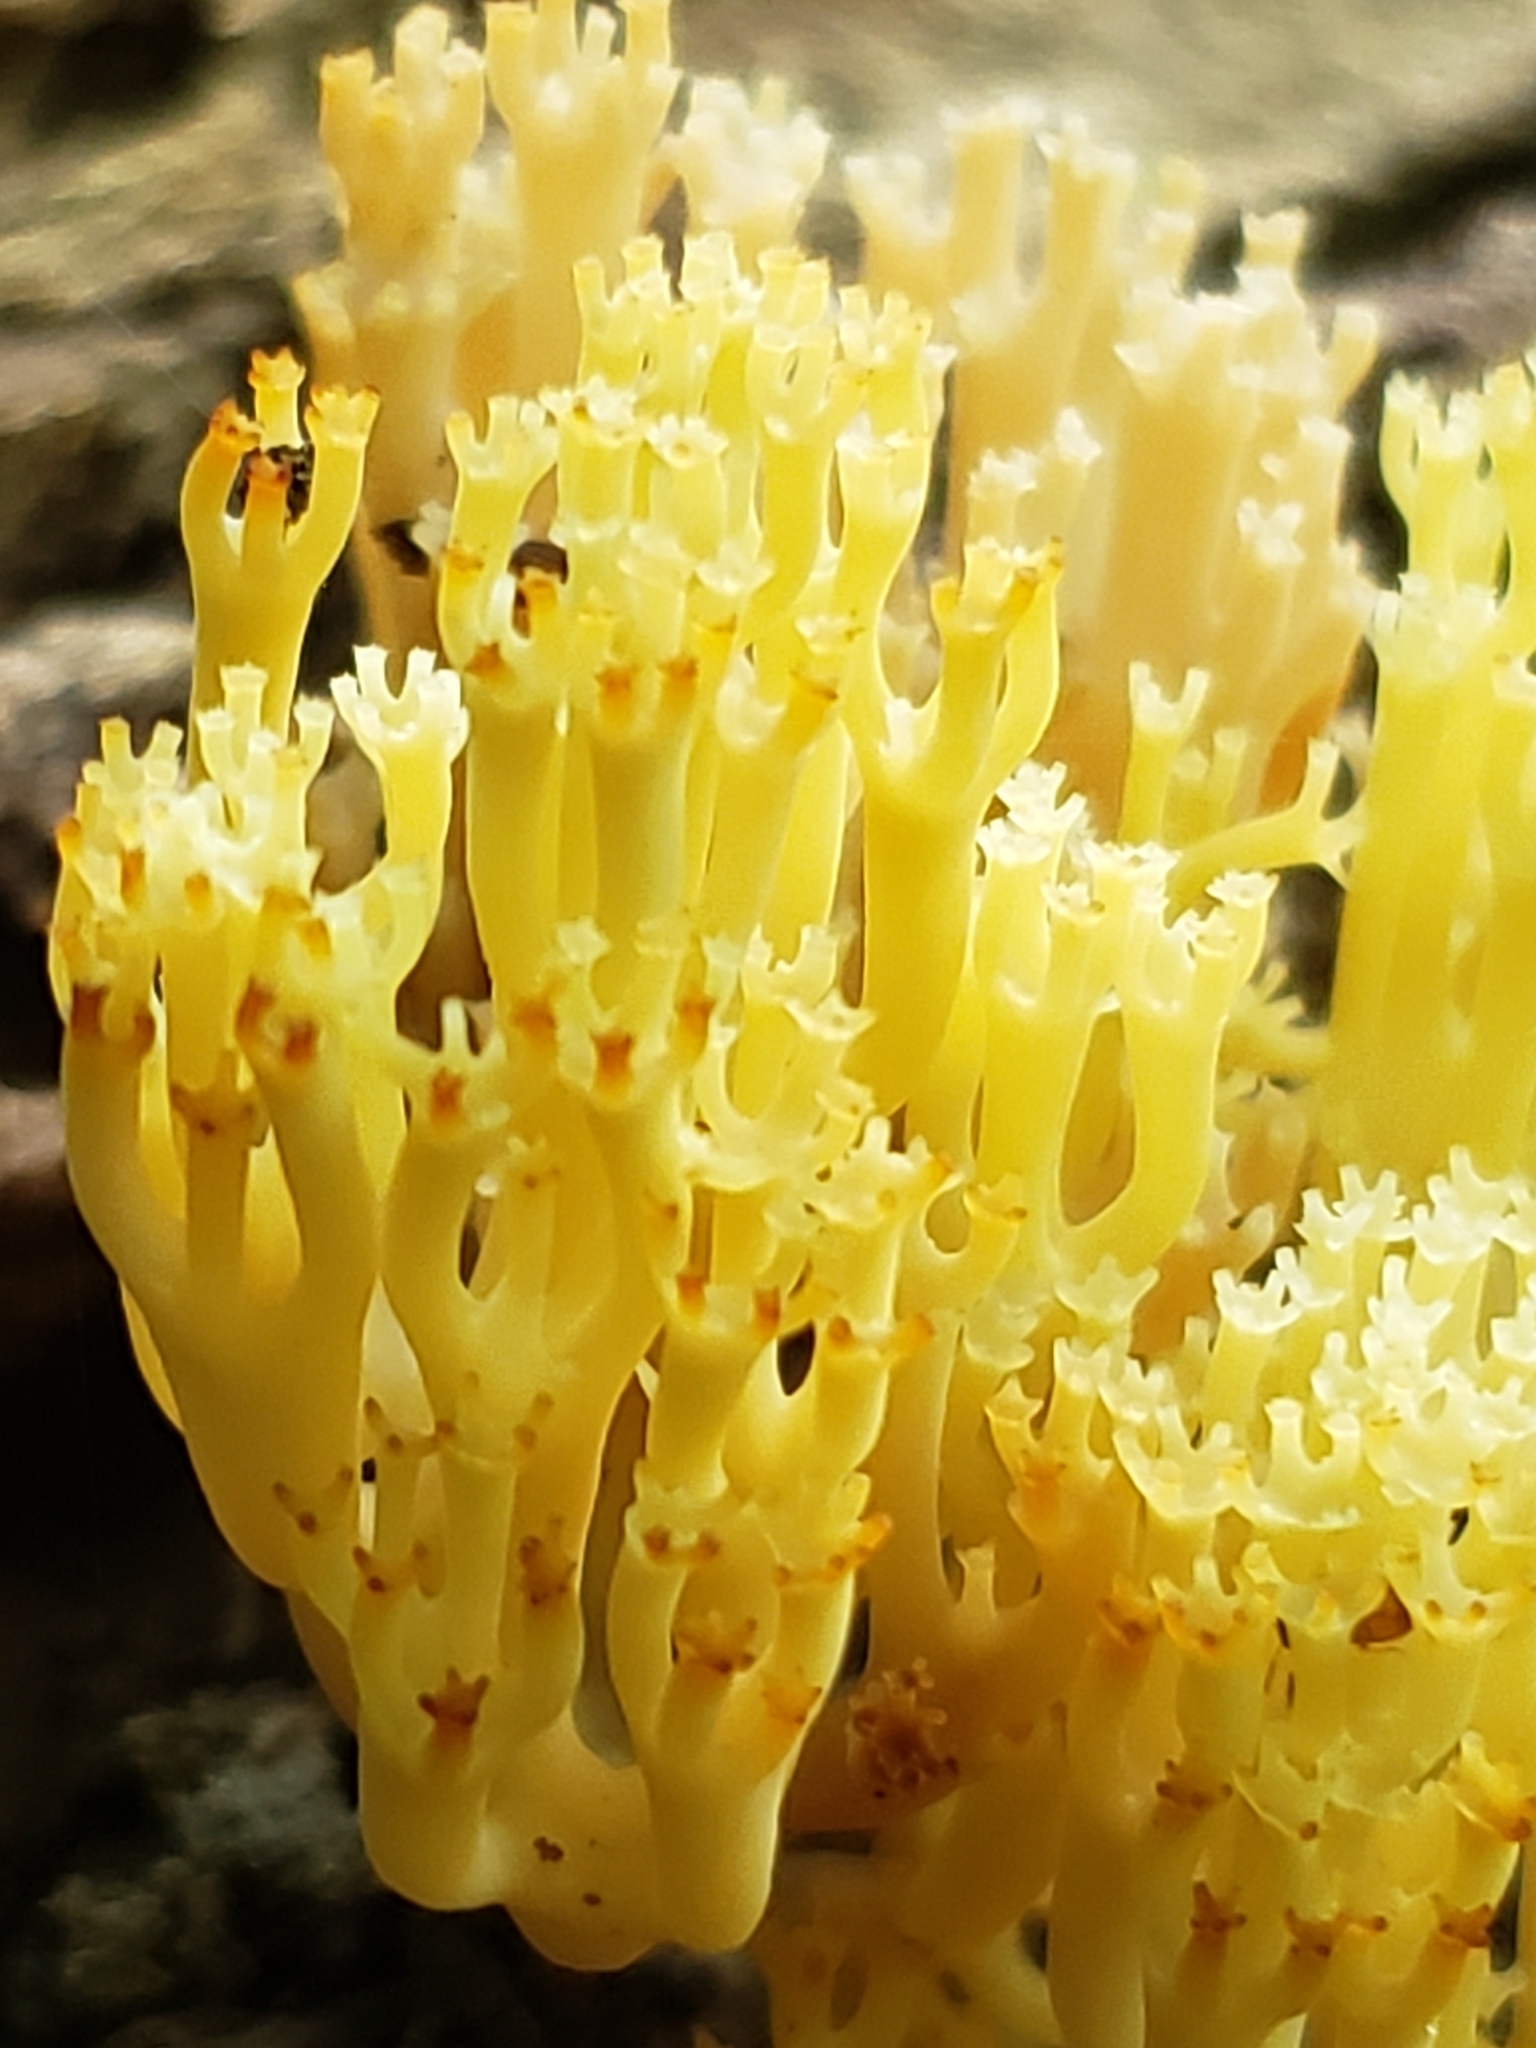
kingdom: Fungi
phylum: Basidiomycota
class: Agaricomycetes
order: Russulales
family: Auriscalpiaceae
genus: Artomyces
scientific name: Artomyces pyxidatus
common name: Crown-tipped coral fungus
